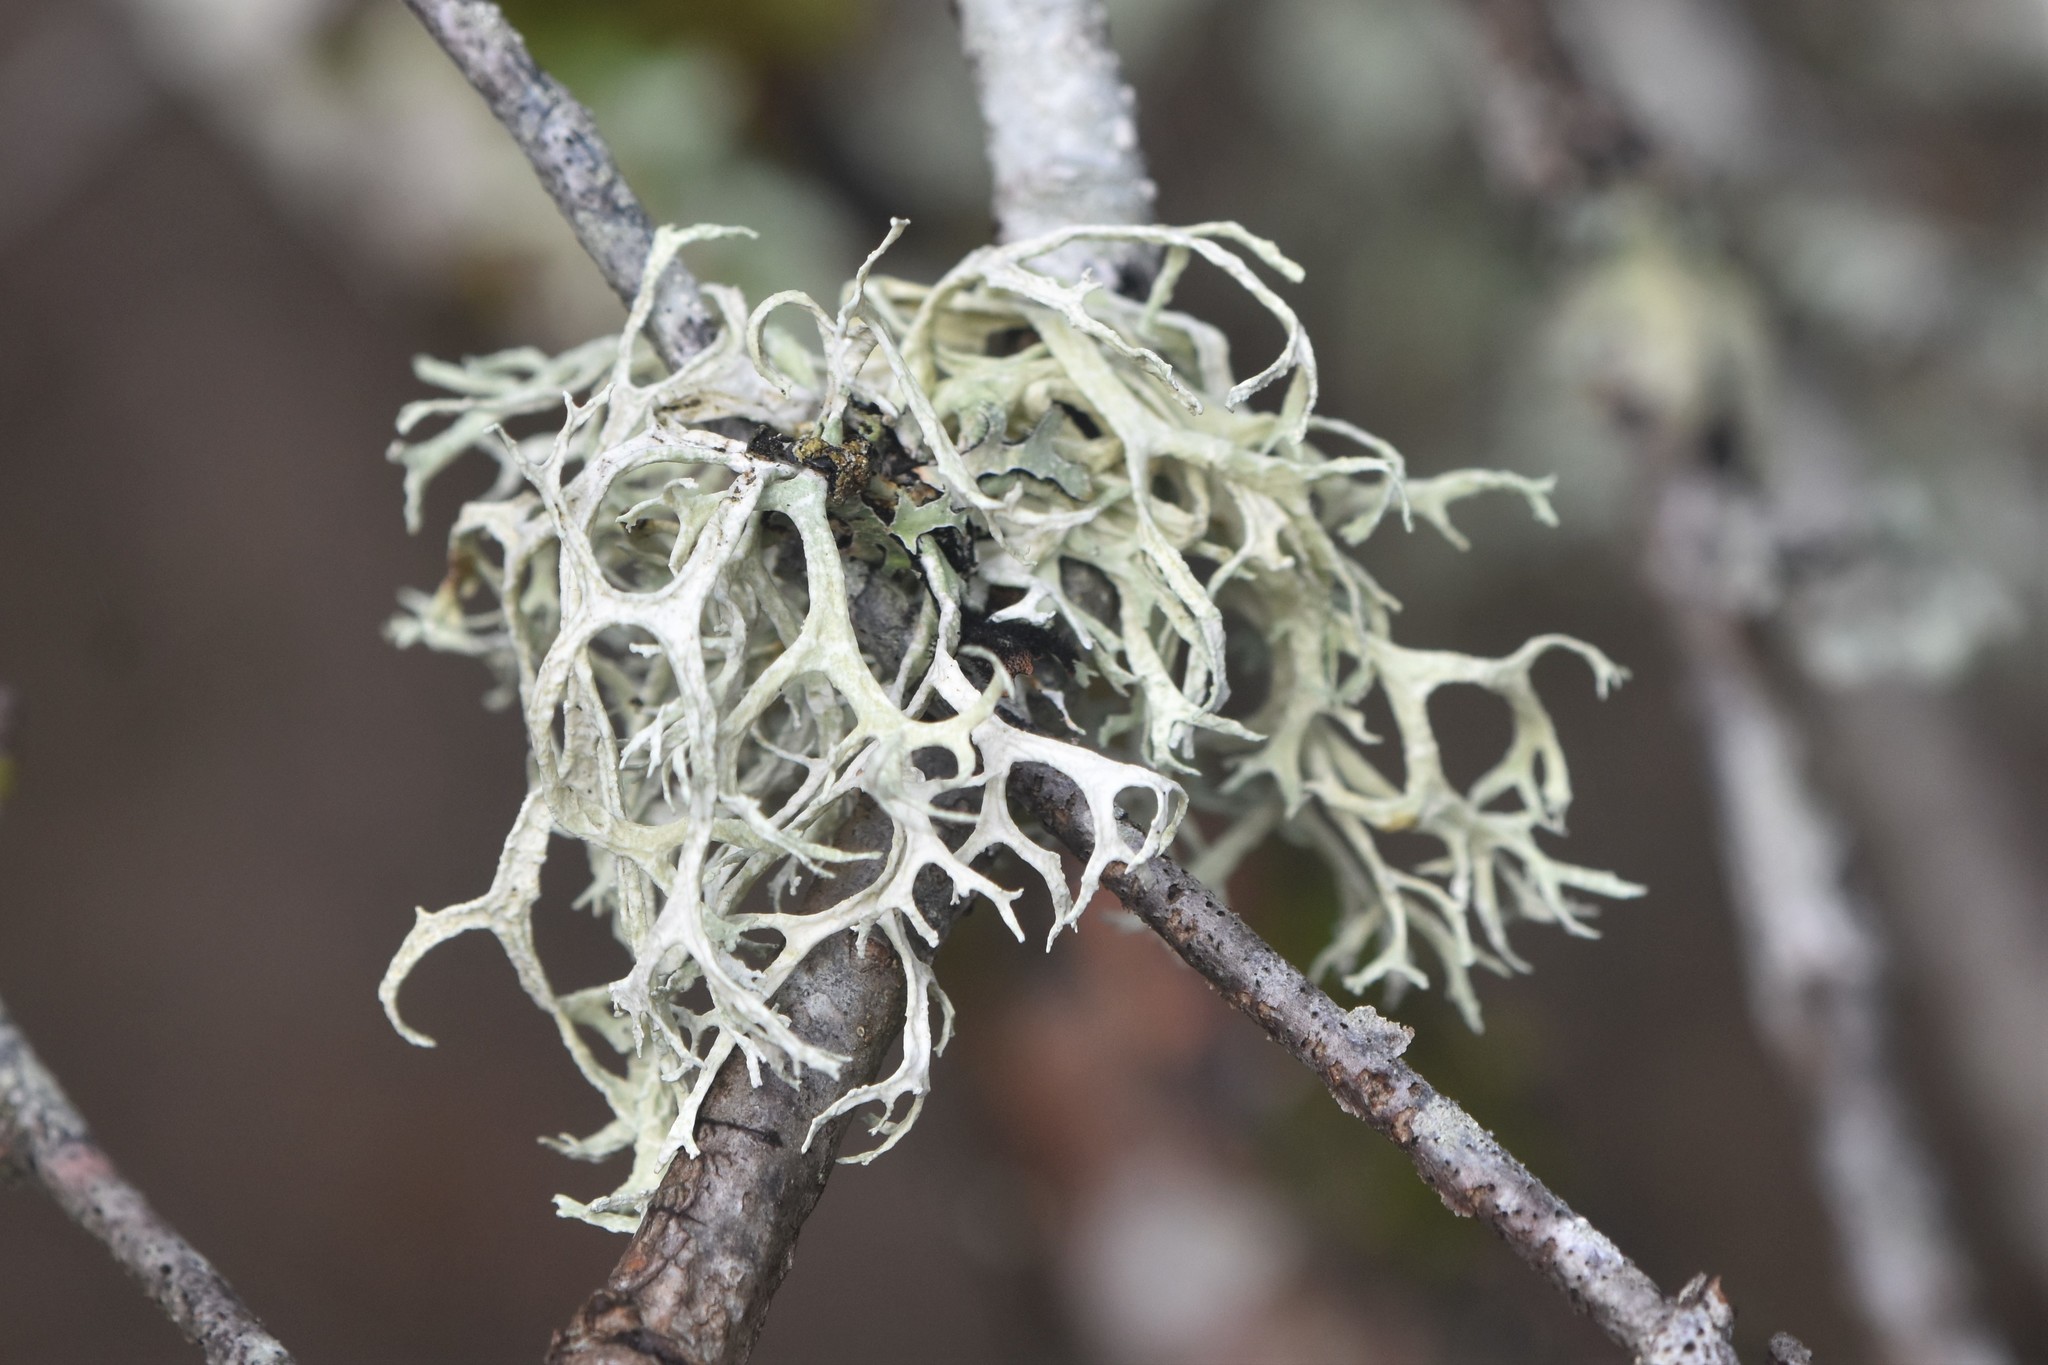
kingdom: Fungi
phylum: Ascomycota
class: Lecanoromycetes
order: Lecanorales
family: Parmeliaceae
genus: Evernia
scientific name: Evernia prunastri
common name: Oak moss
